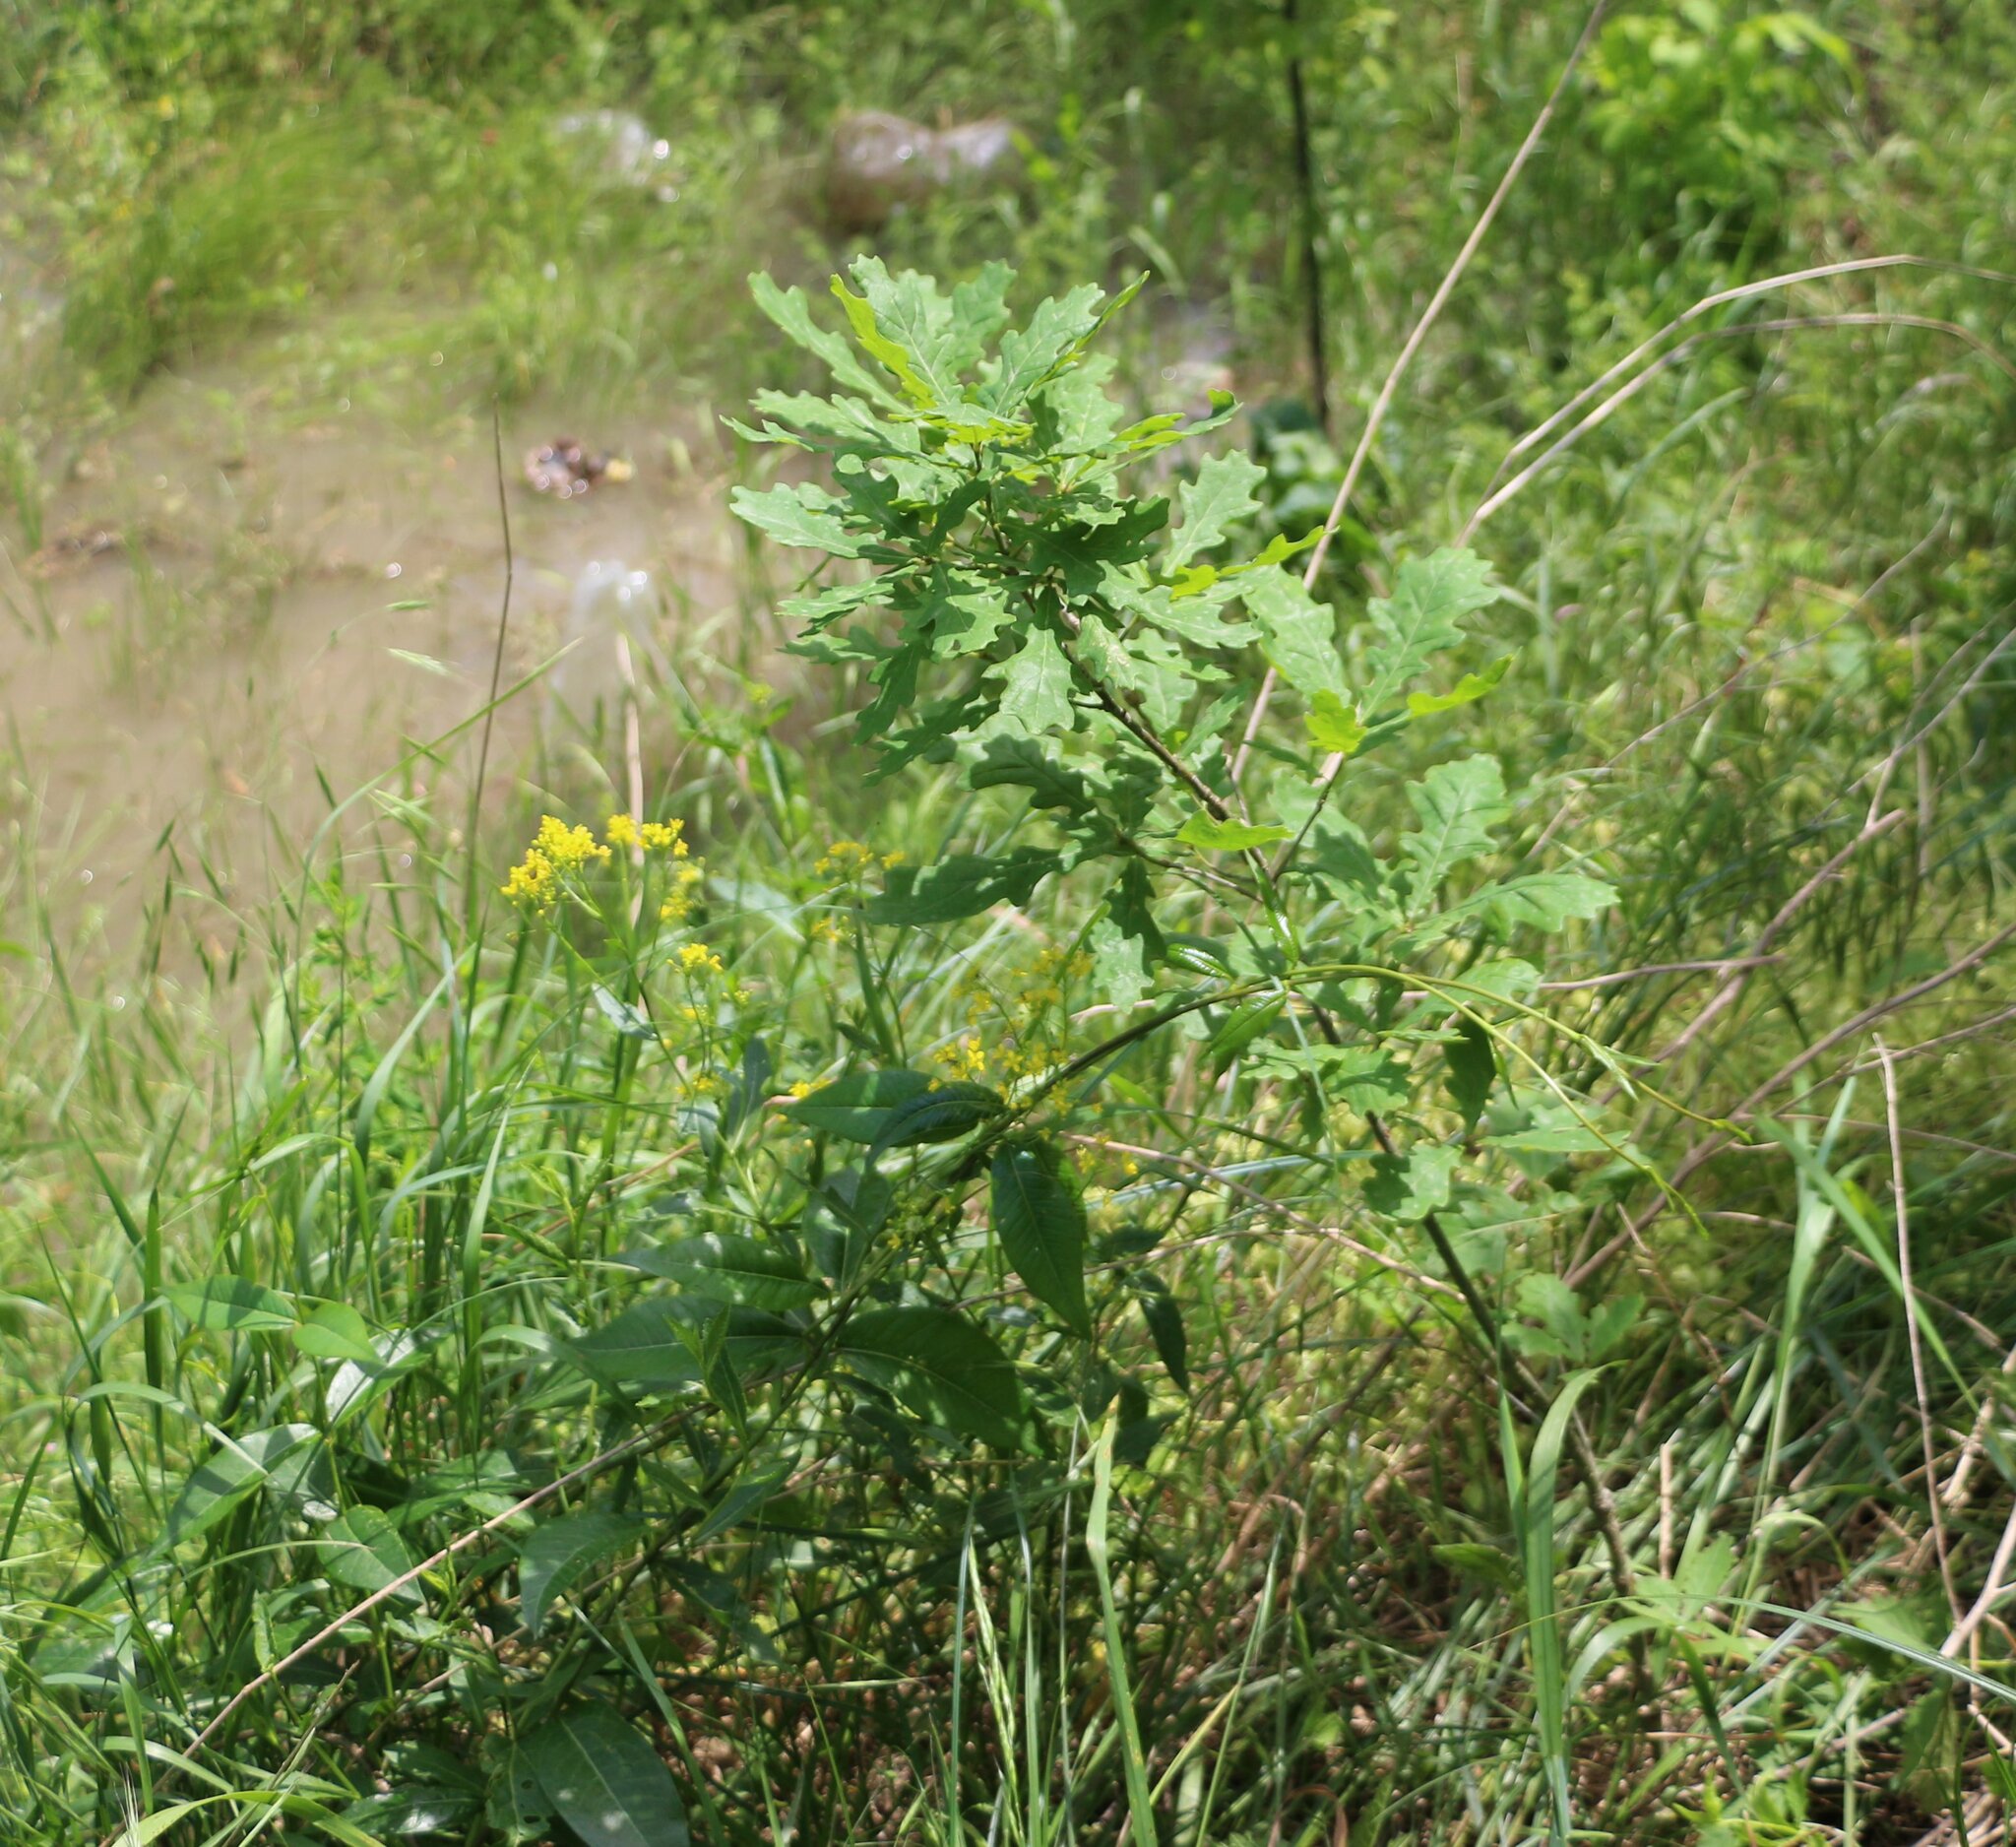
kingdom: Plantae
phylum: Tracheophyta
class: Magnoliopsida
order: Fagales
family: Fagaceae
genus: Quercus
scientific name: Quercus robur
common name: Pedunculate oak
